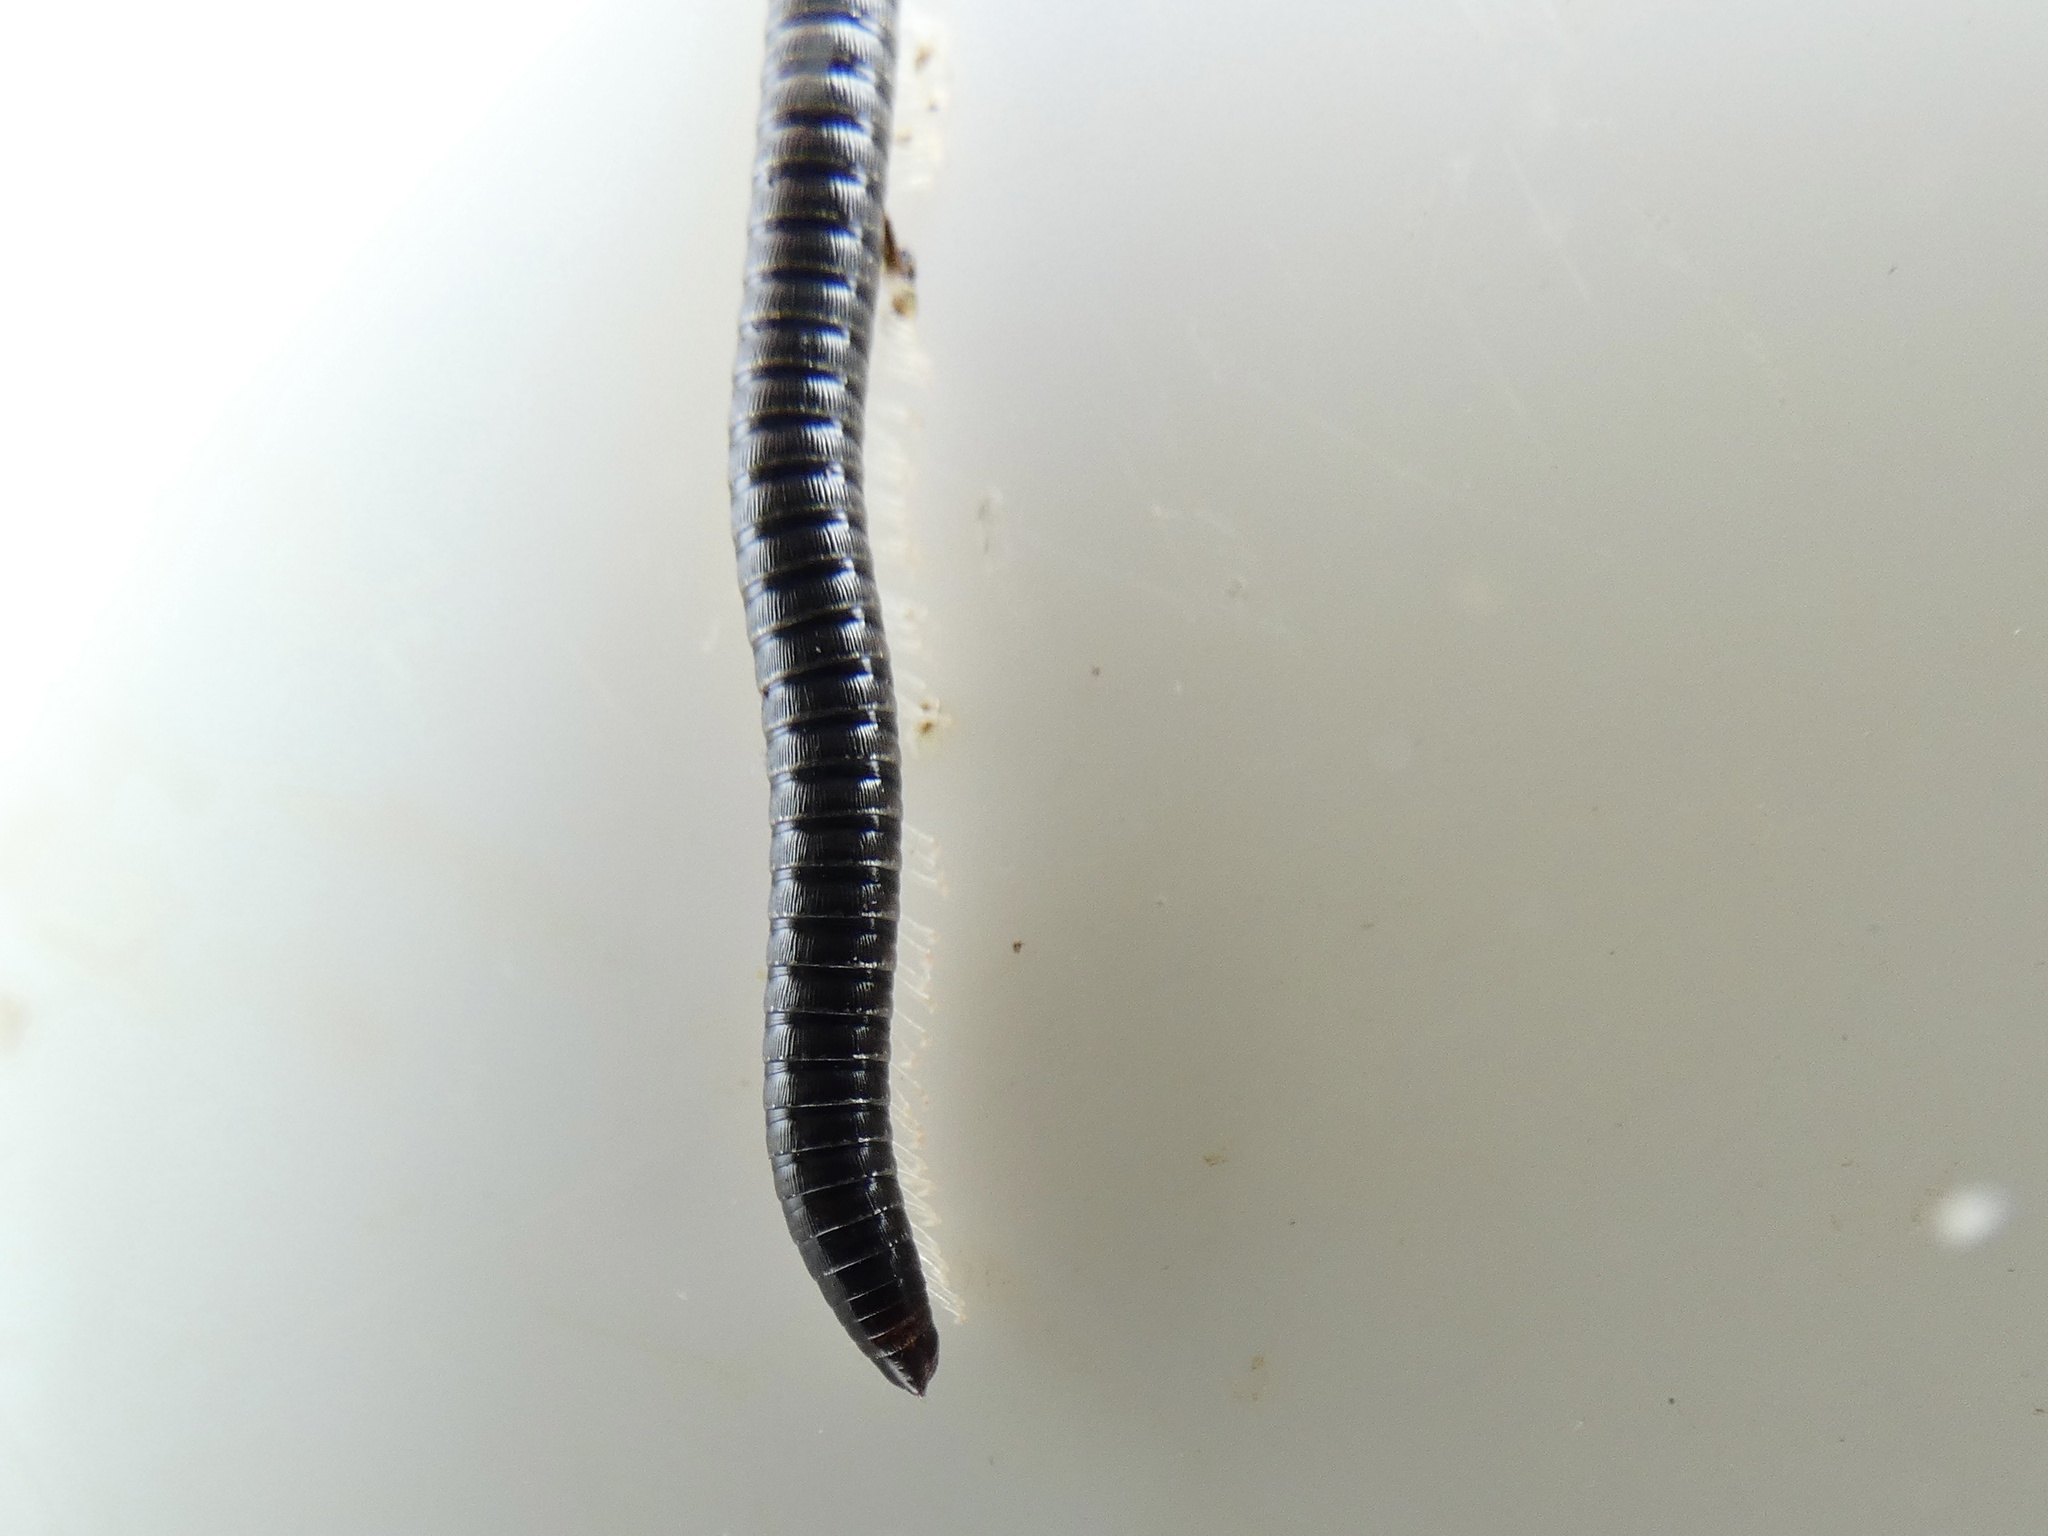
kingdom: Animalia
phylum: Arthropoda
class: Diplopoda
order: Julida
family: Julidae
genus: Tachypodoiulus
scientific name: Tachypodoiulus niger
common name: White-legged snake millipede
